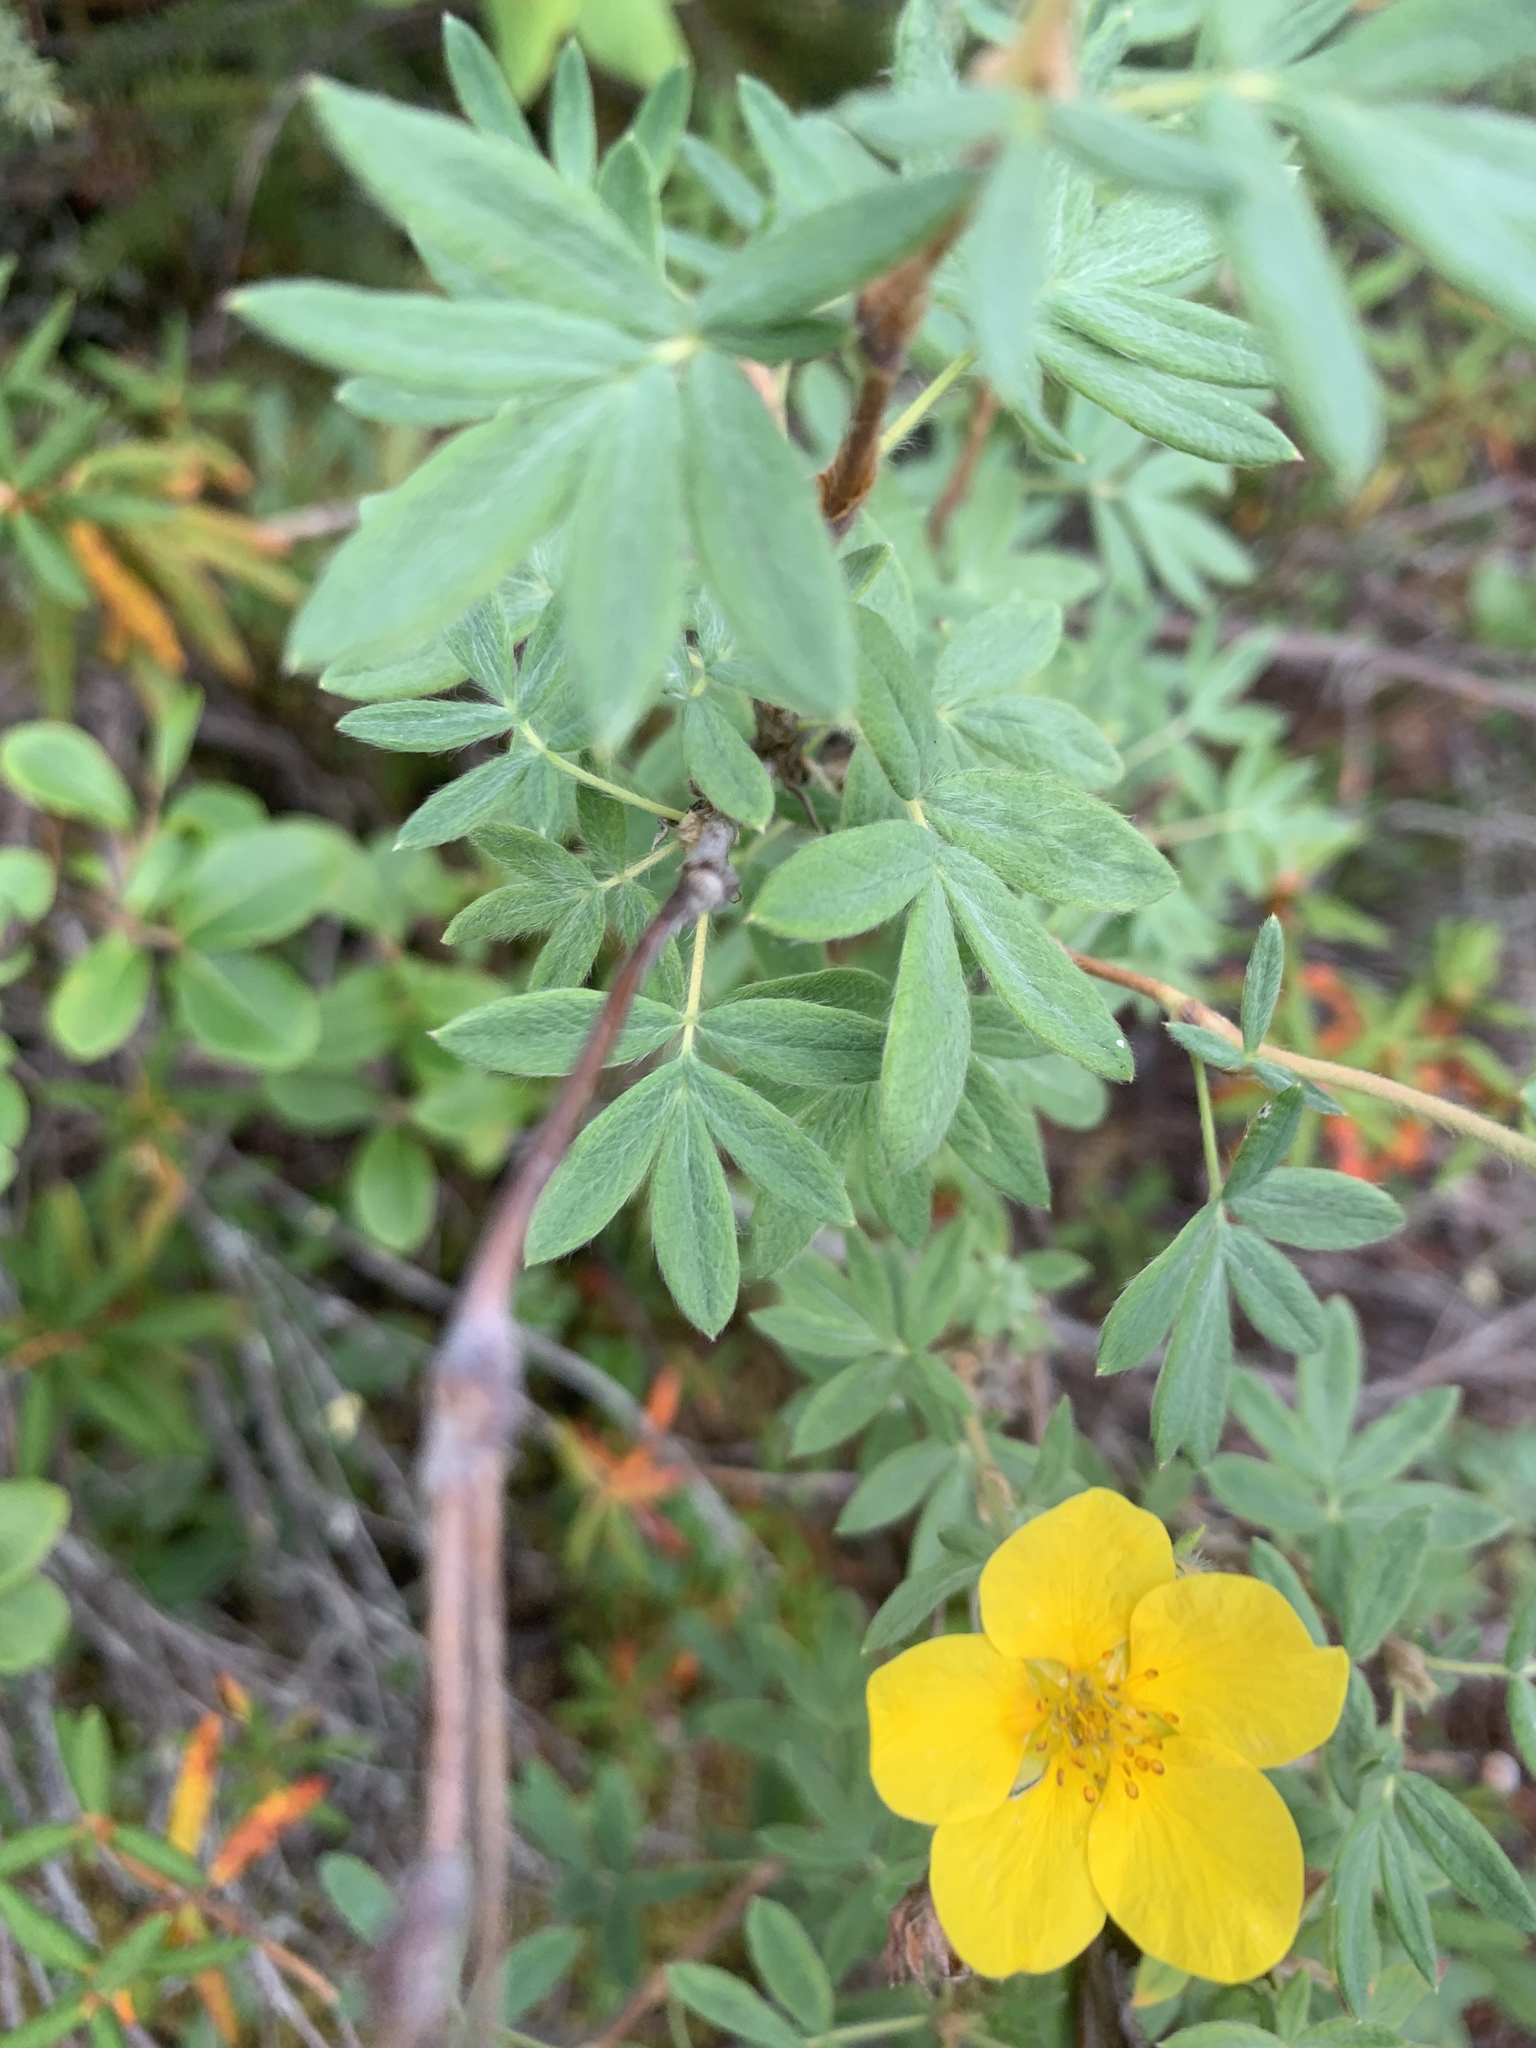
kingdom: Plantae
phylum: Tracheophyta
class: Magnoliopsida
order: Rosales
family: Rosaceae
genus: Dasiphora
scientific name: Dasiphora fruticosa
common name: Shrubby cinquefoil
